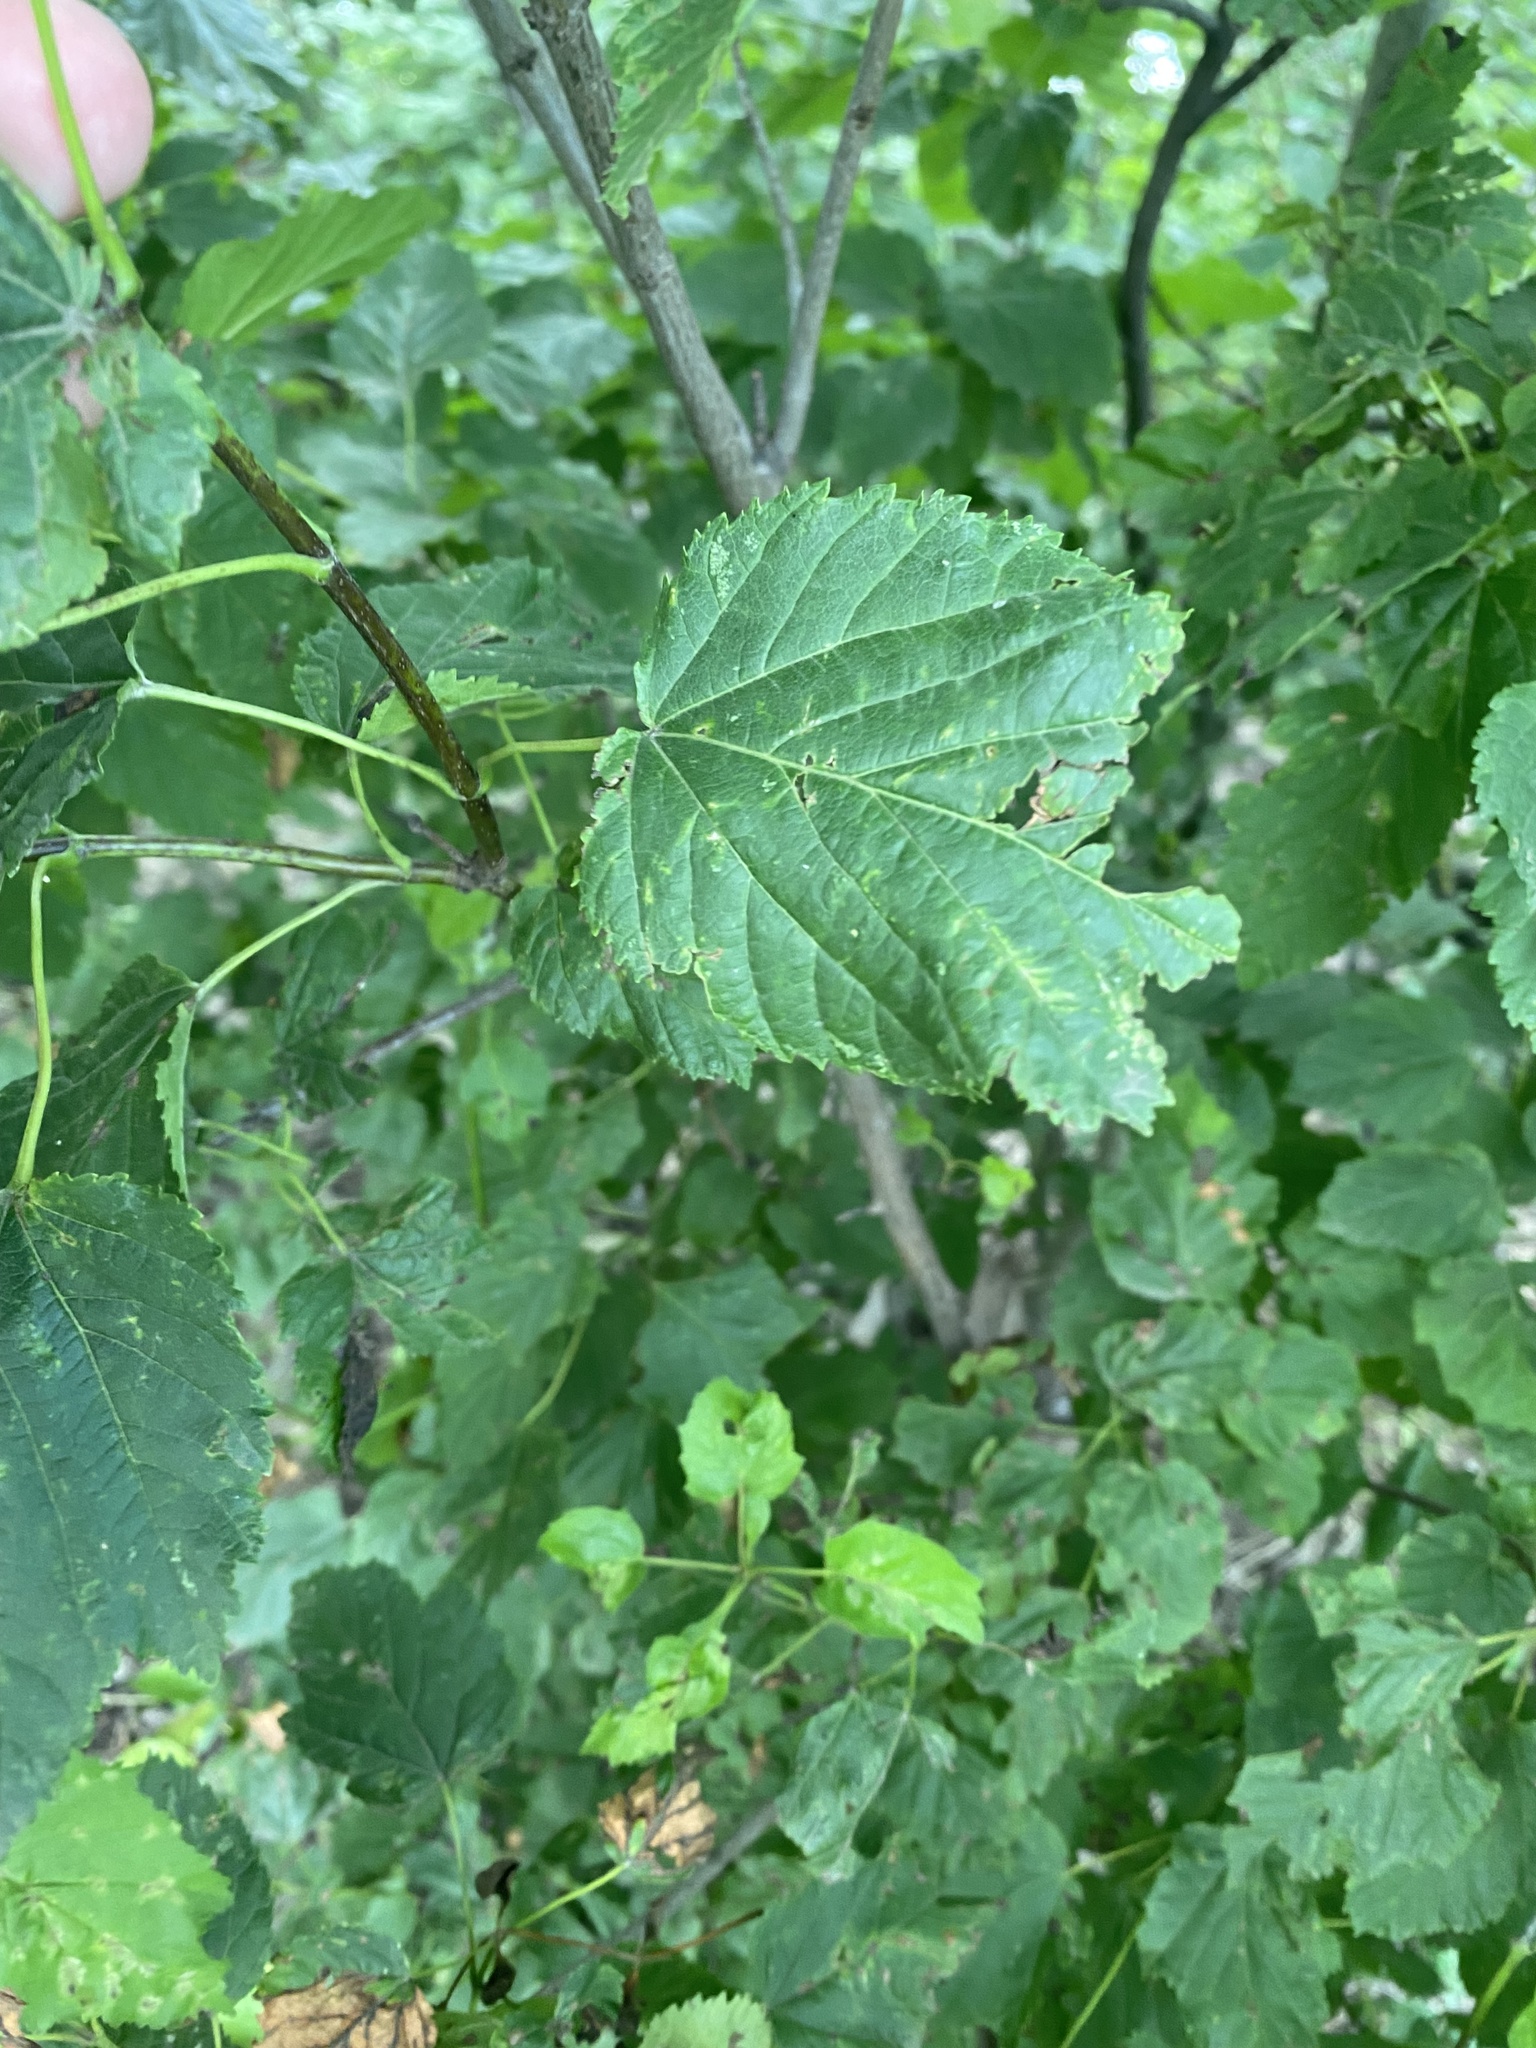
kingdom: Plantae
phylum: Tracheophyta
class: Magnoliopsida
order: Sapindales
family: Sapindaceae
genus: Acer
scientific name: Acer tataricum
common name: Tartar maple
